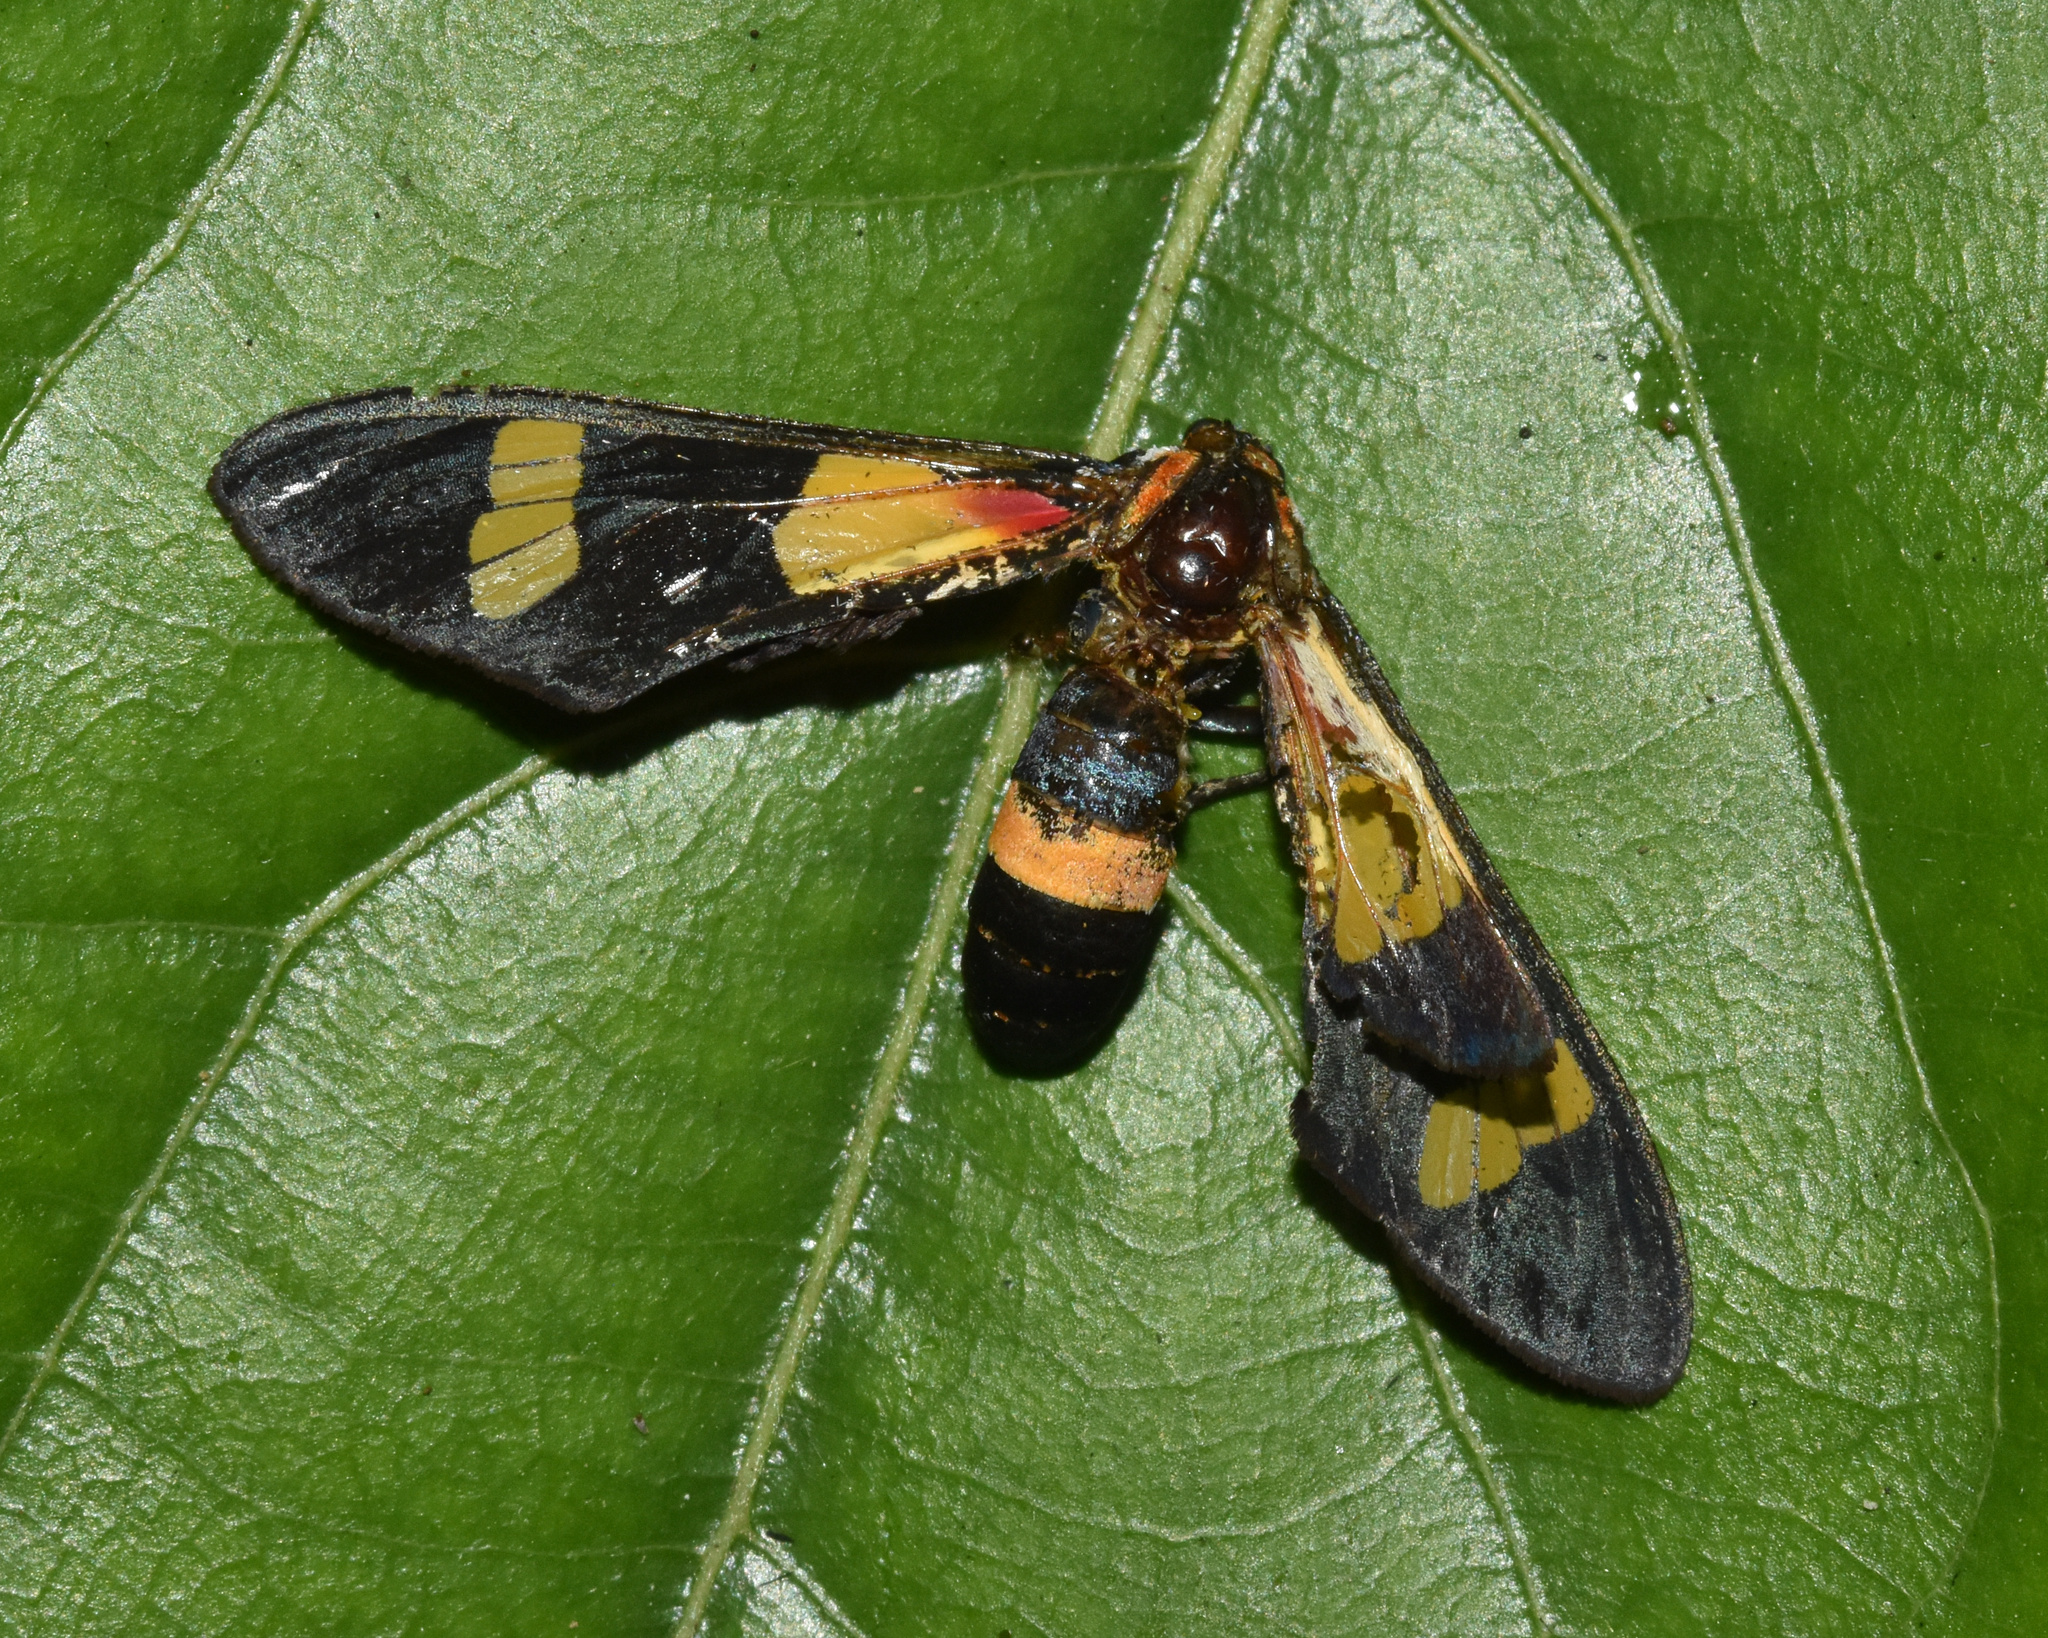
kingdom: Animalia
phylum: Arthropoda
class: Insecta
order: Lepidoptera
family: Erebidae
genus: Euchromia
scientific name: Euchromia amoena
